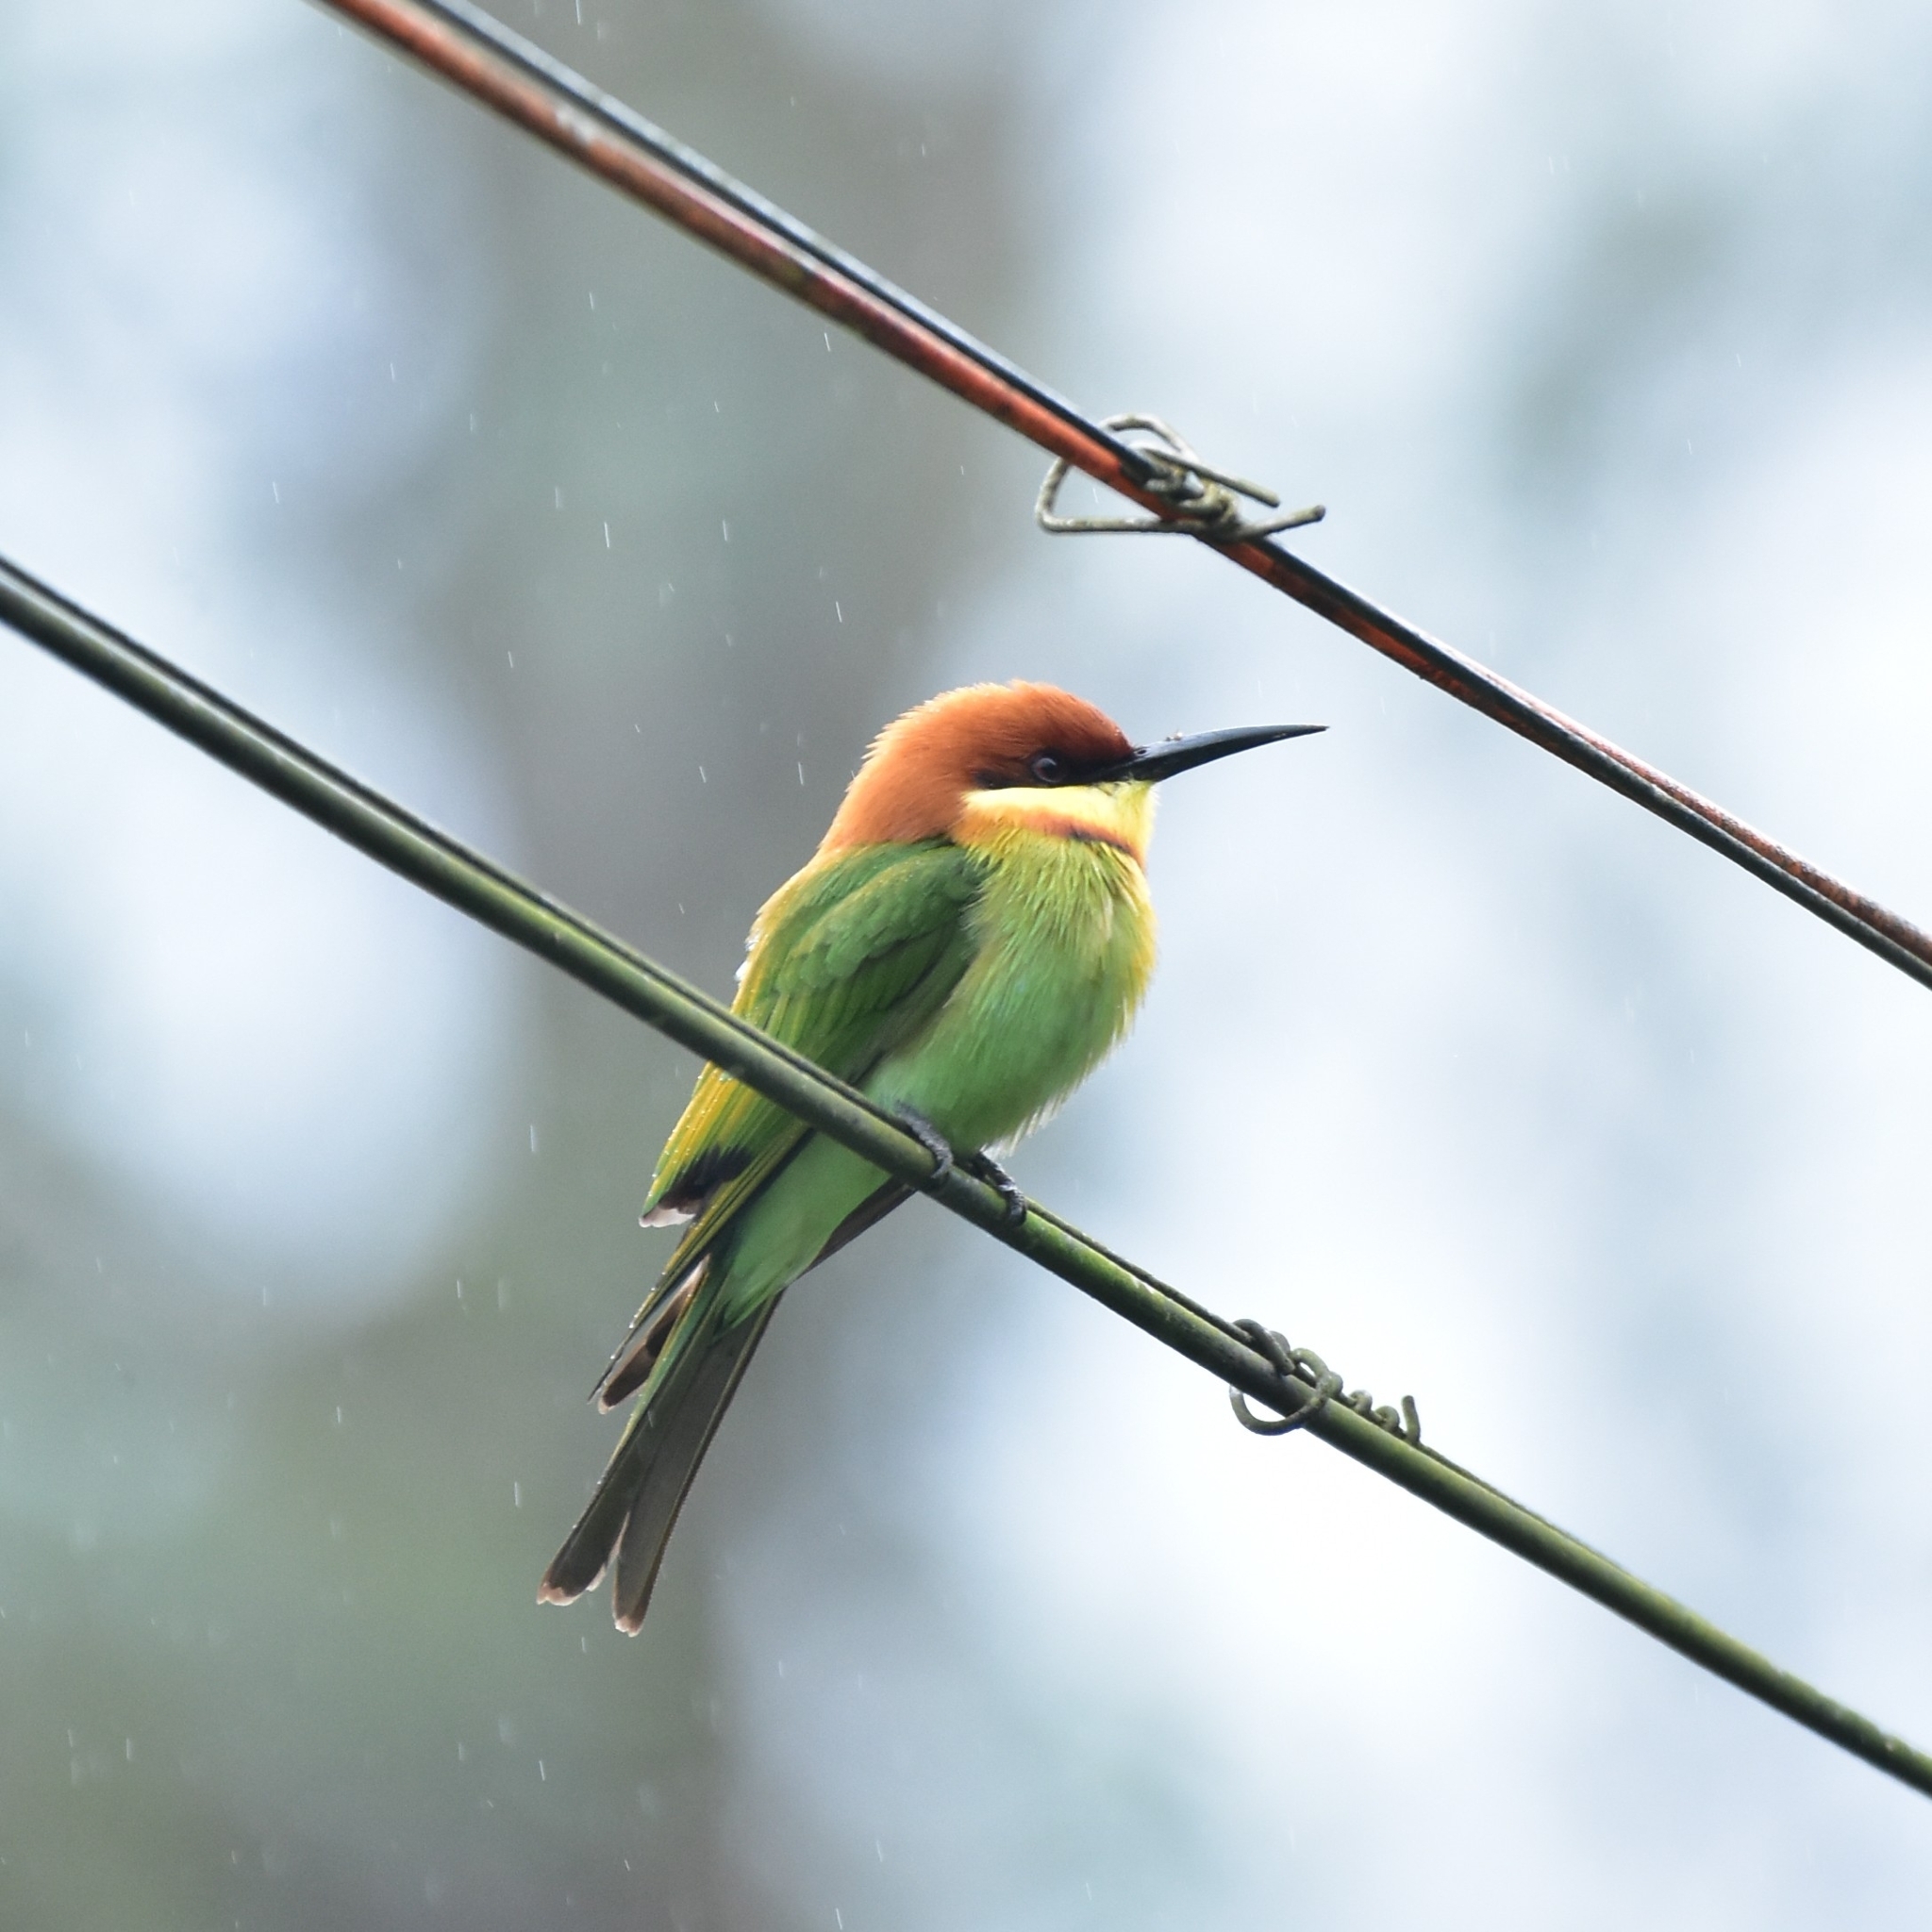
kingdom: Animalia
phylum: Chordata
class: Aves
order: Coraciiformes
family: Meropidae
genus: Merops
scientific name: Merops leschenaulti
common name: Chestnut-headed bee-eater
